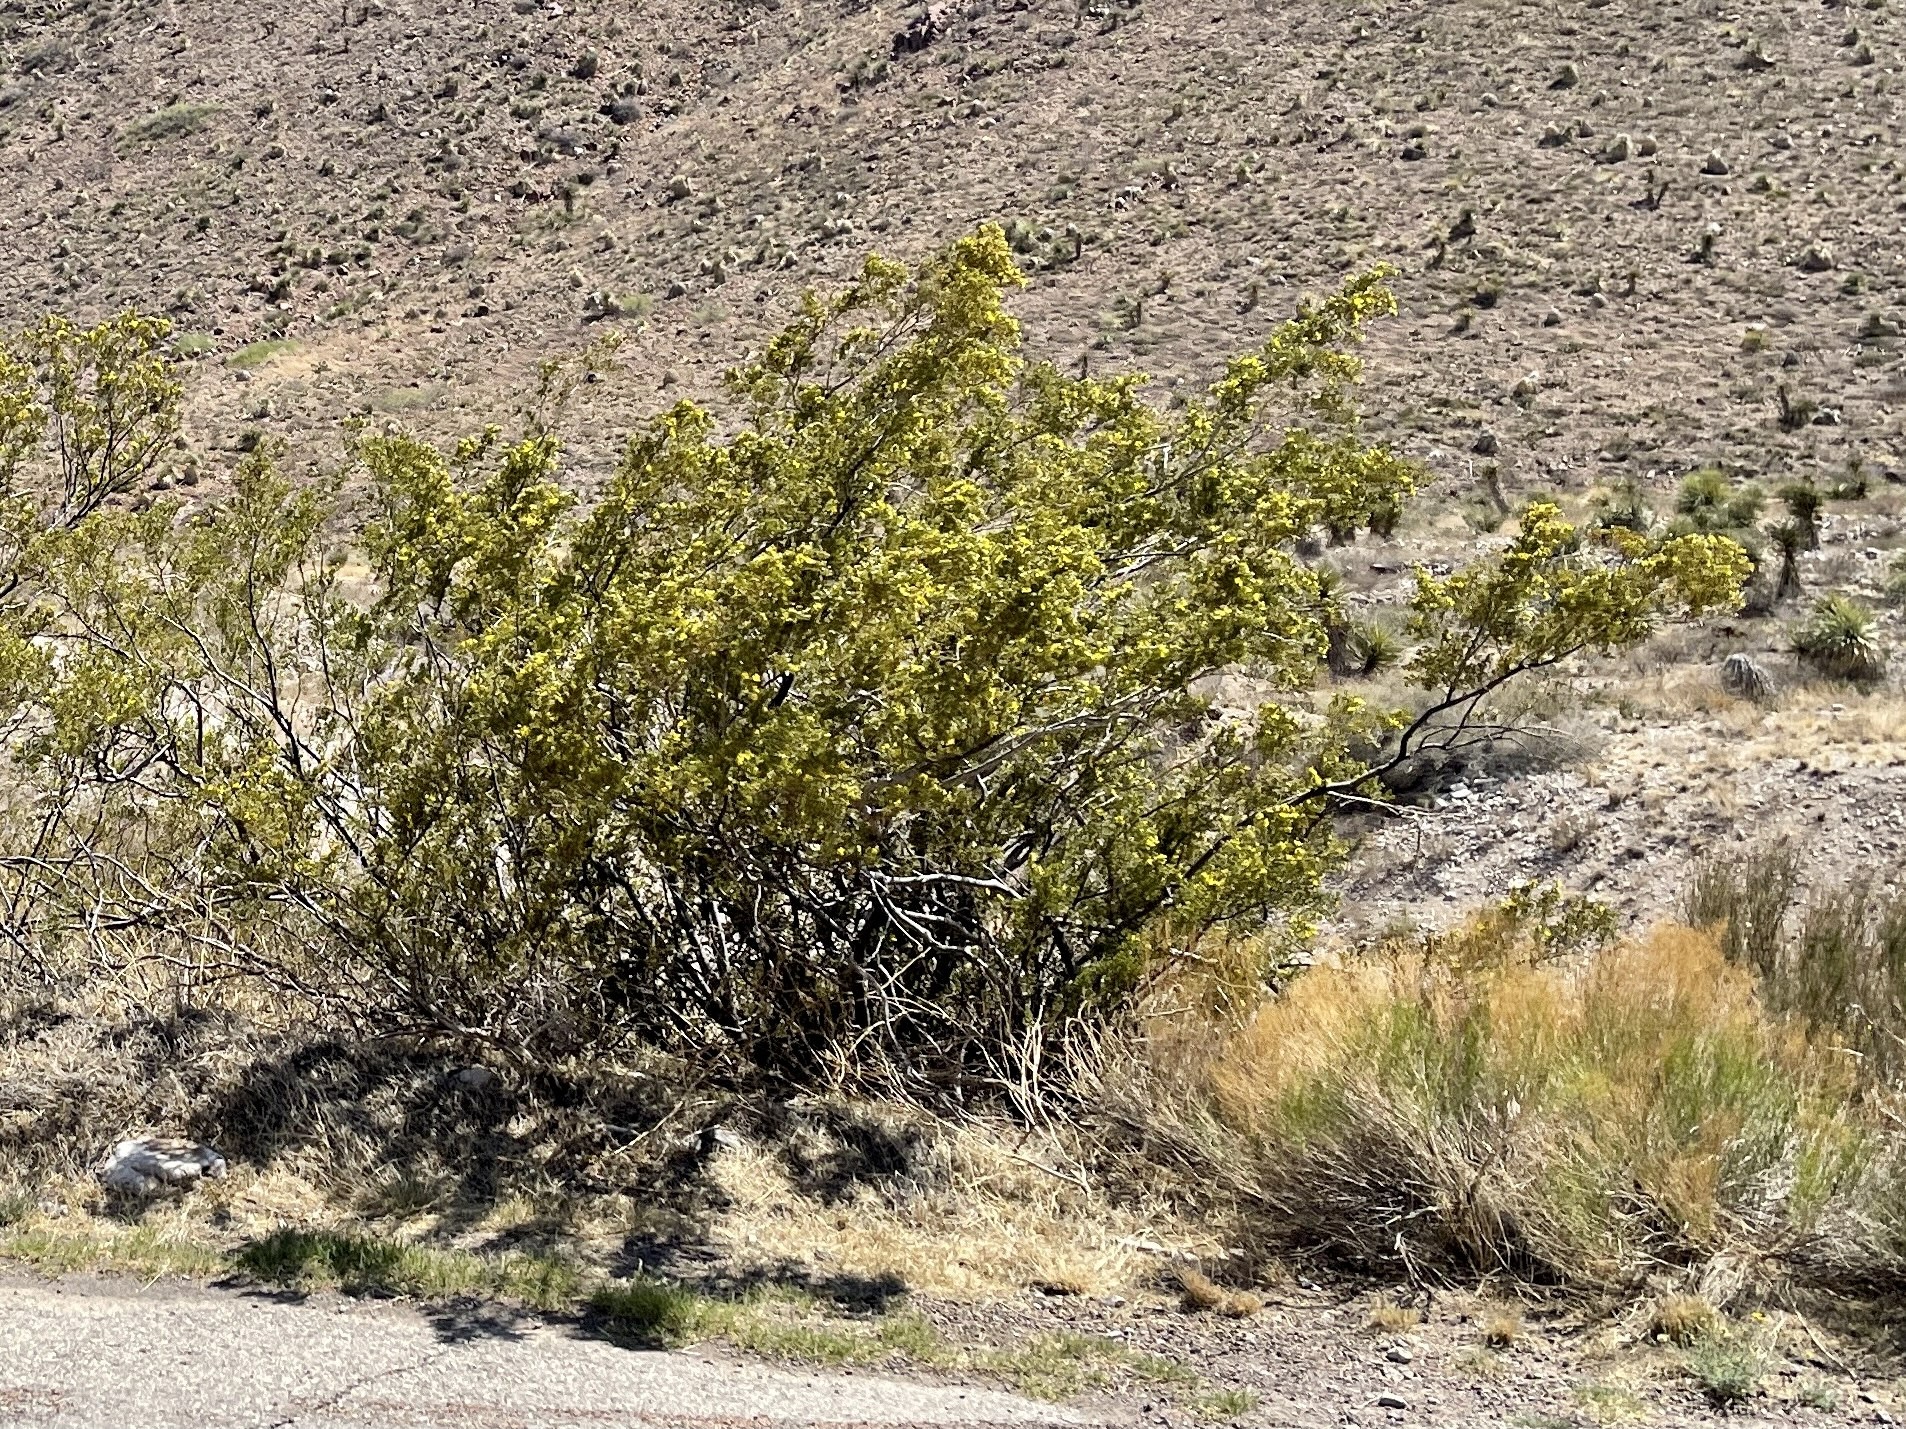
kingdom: Plantae
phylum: Tracheophyta
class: Magnoliopsida
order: Zygophyllales
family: Zygophyllaceae
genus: Larrea
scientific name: Larrea tridentata
